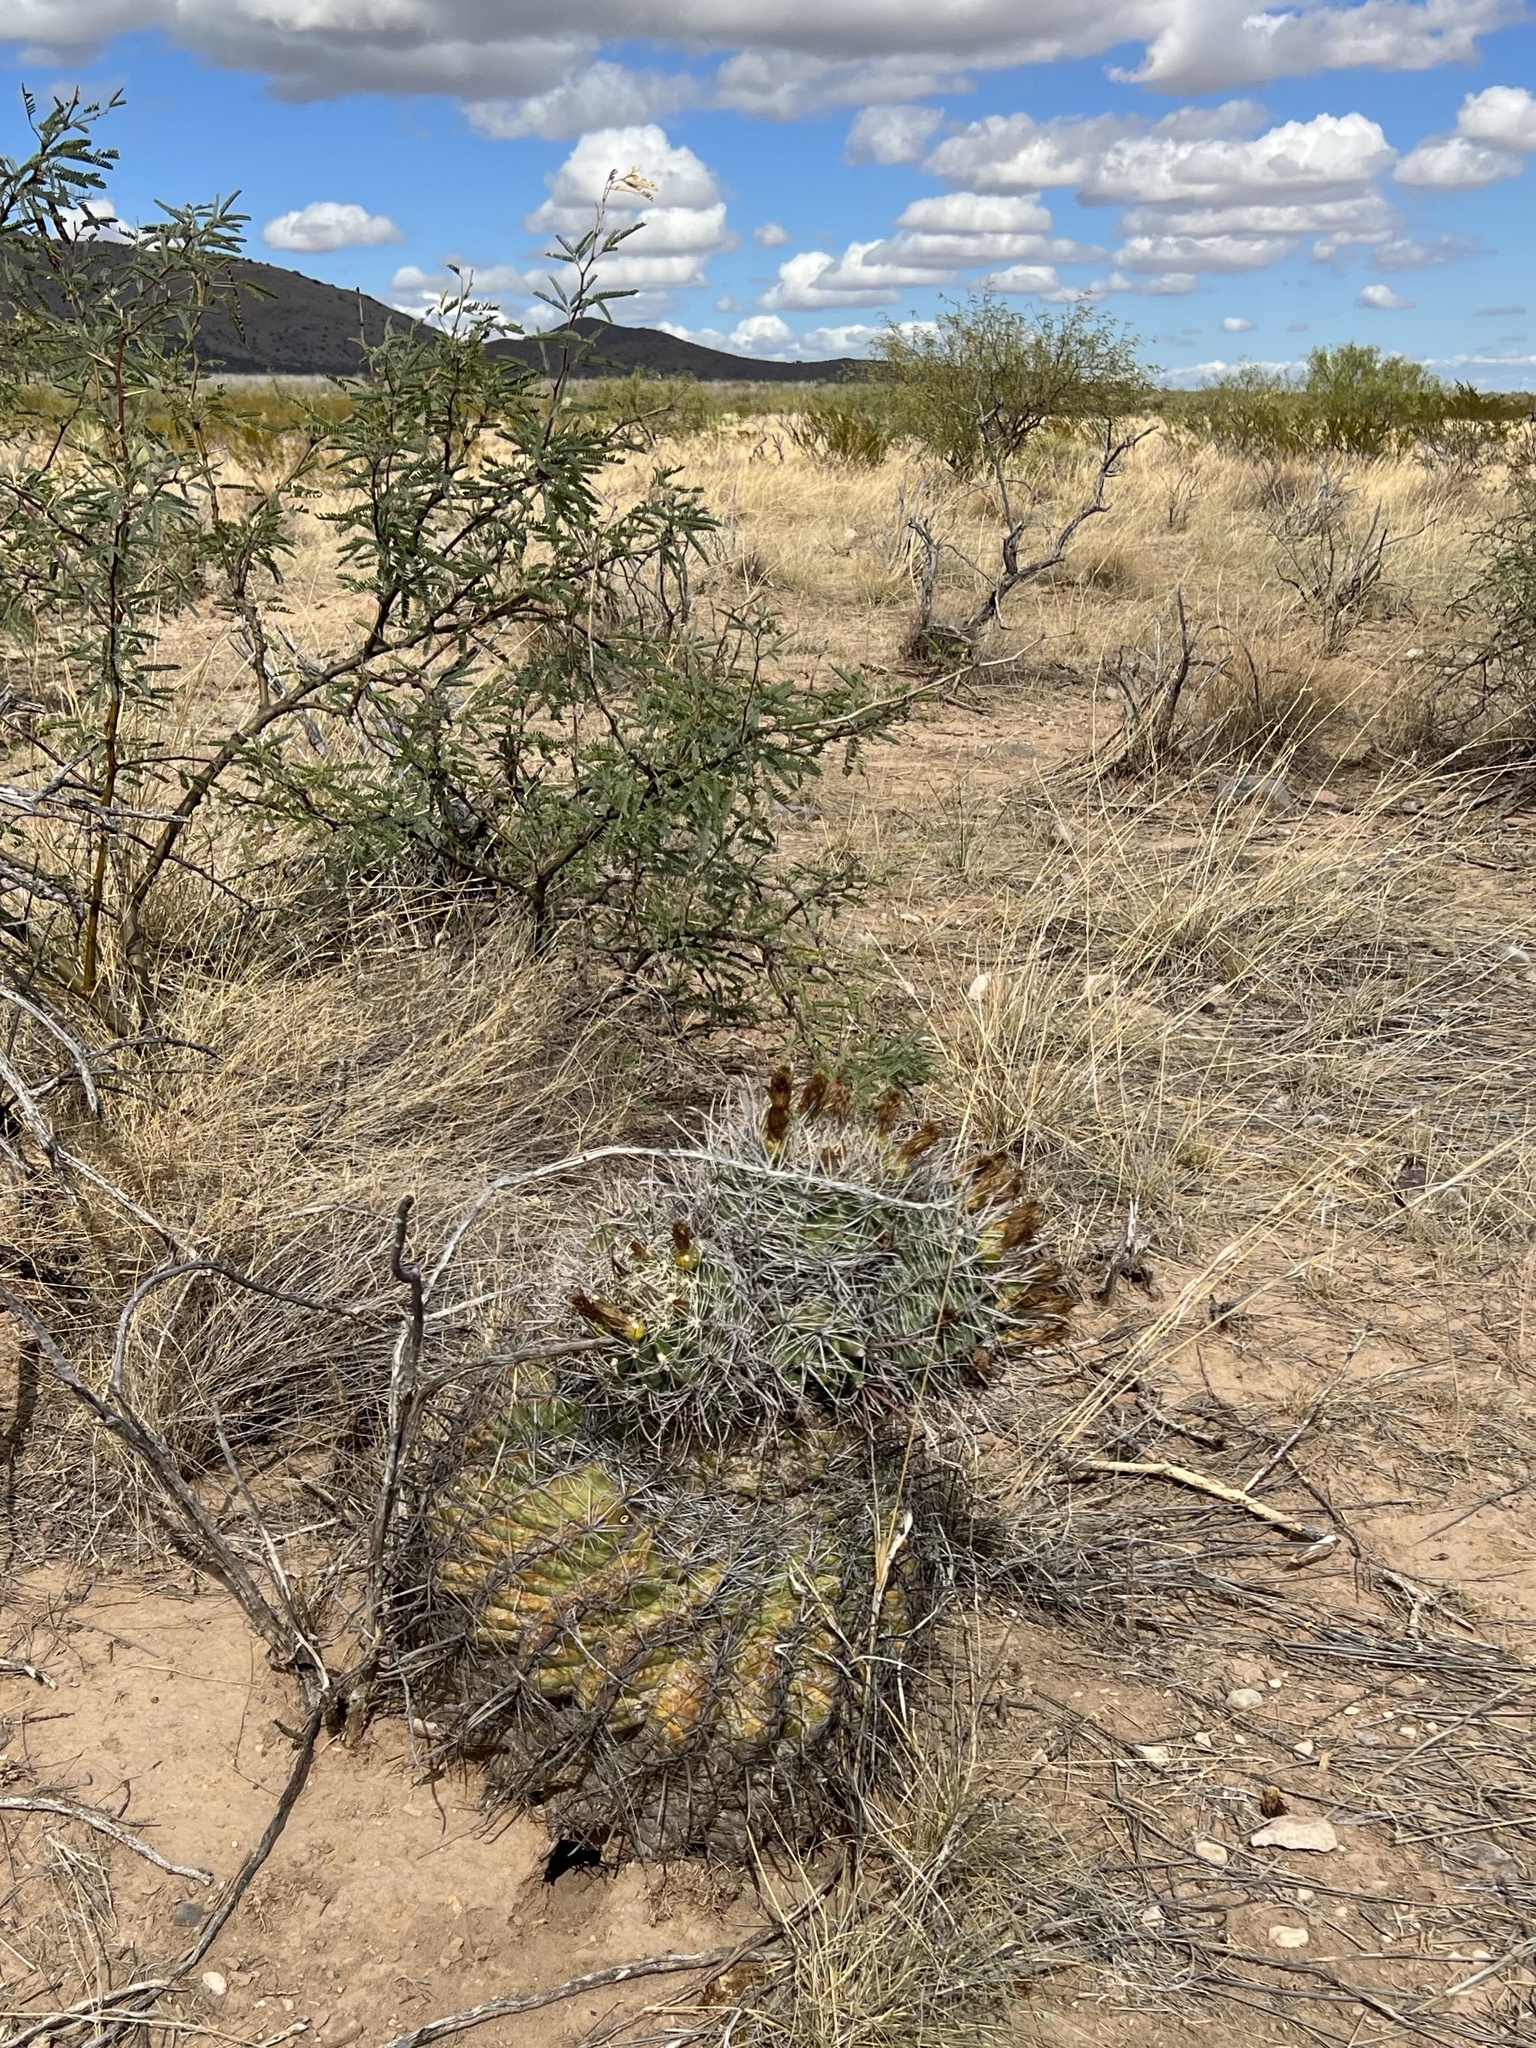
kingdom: Plantae
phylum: Tracheophyta
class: Magnoliopsida
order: Caryophyllales
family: Cactaceae
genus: Ferocactus
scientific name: Ferocactus wislizeni
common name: Candy barrel cactus
